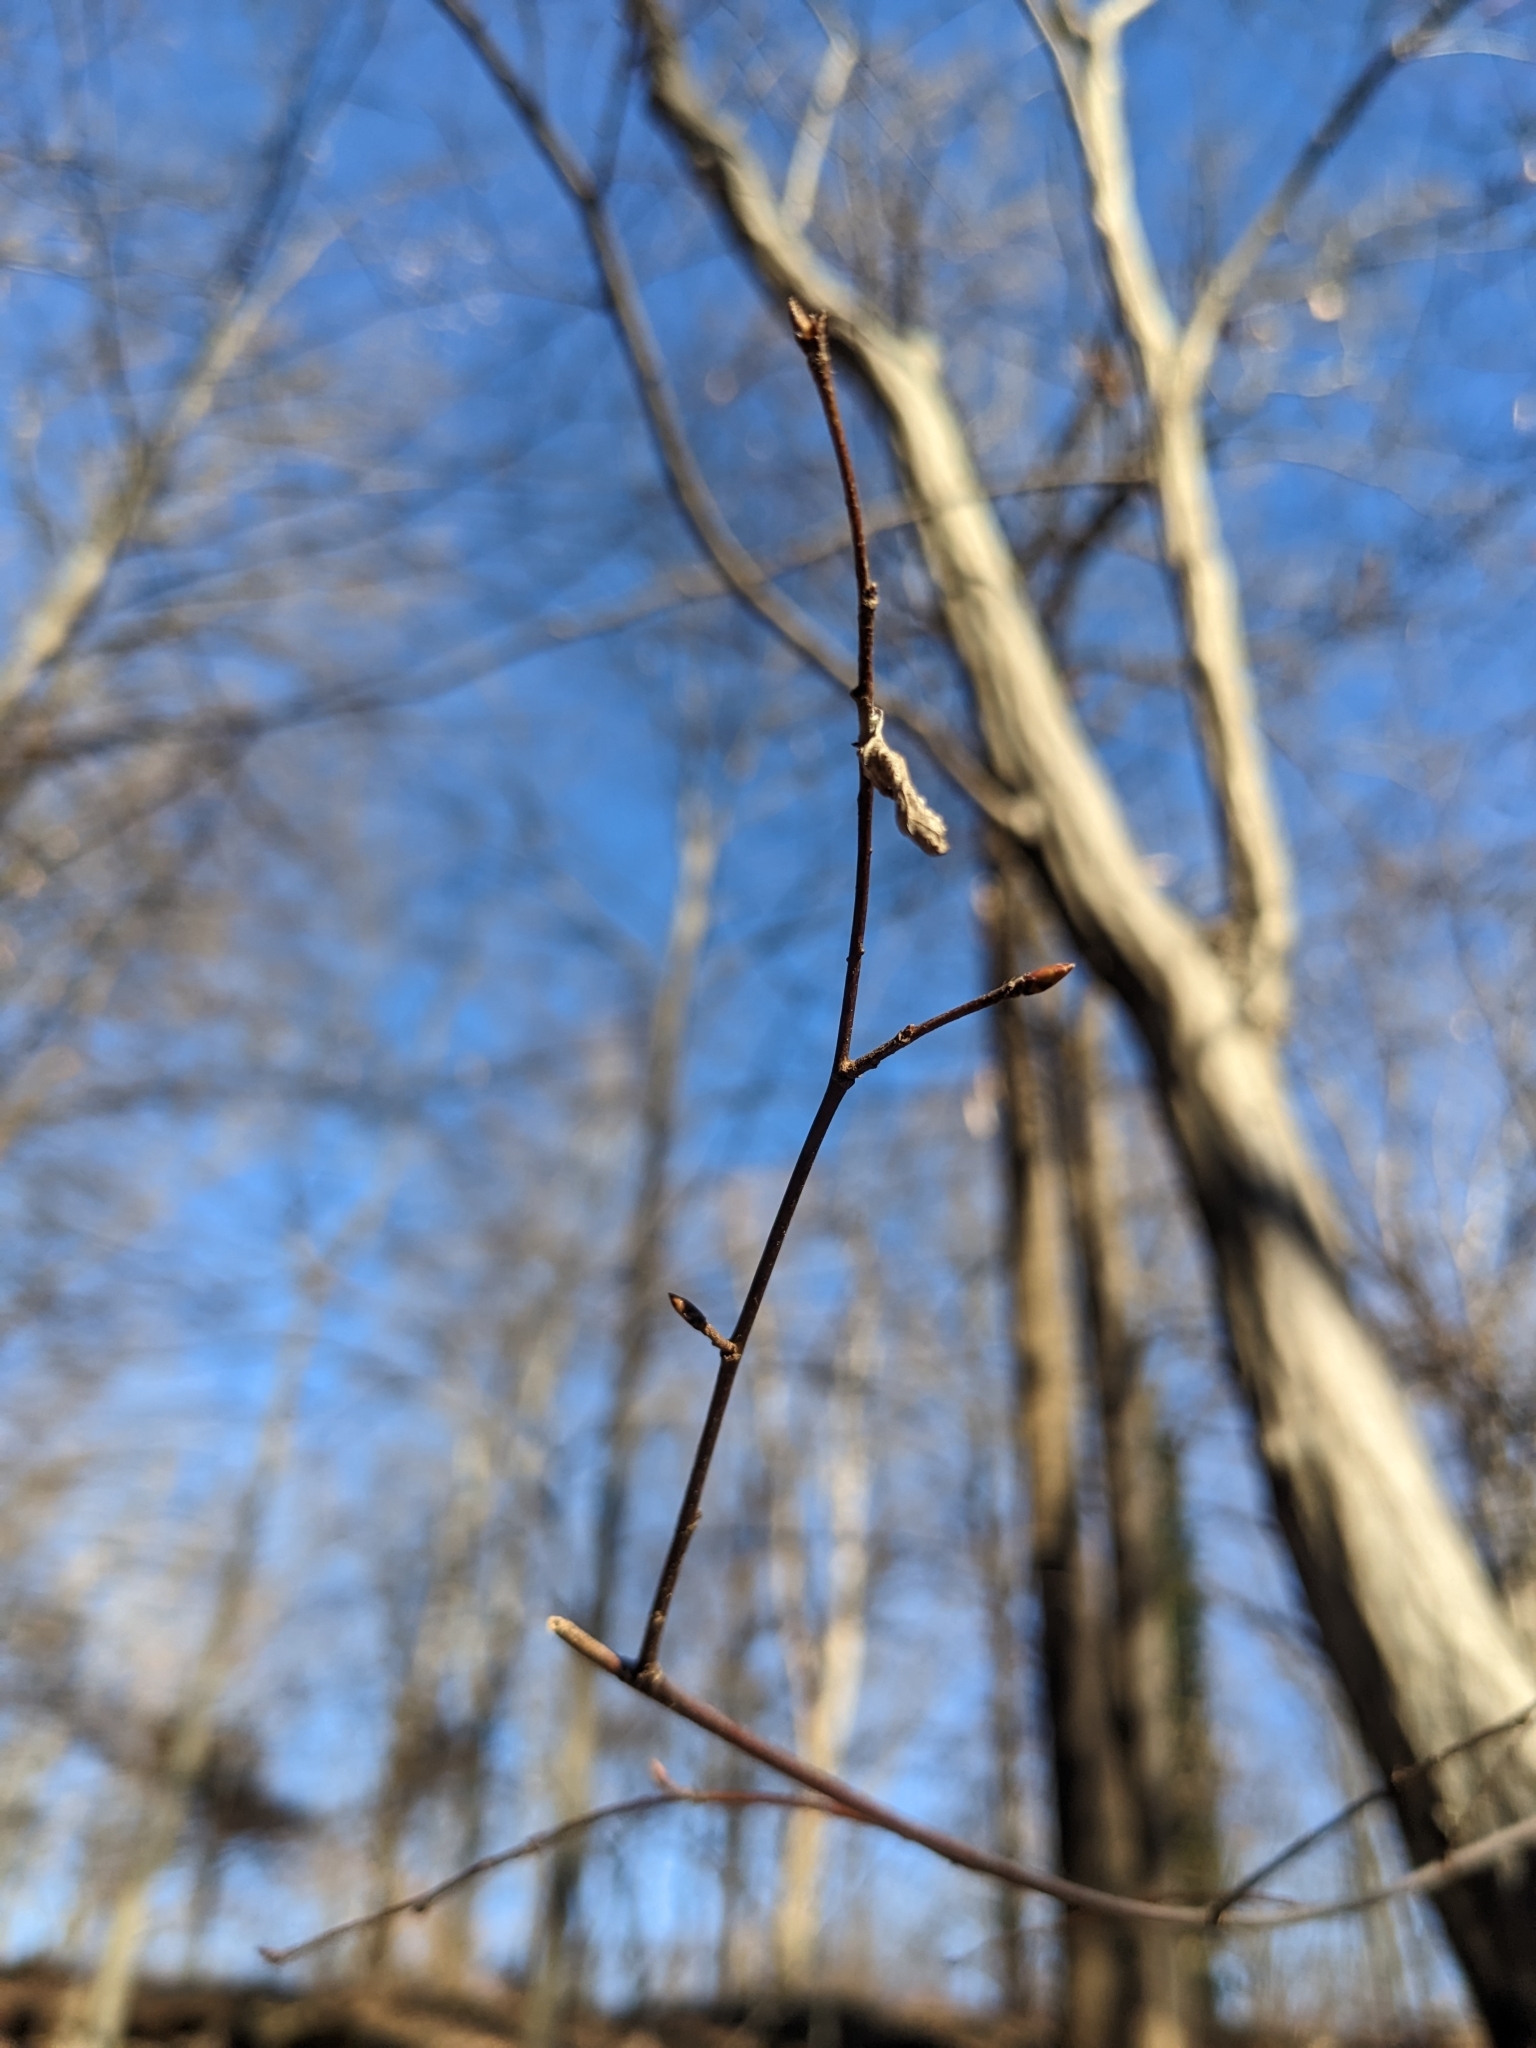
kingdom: Plantae
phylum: Tracheophyta
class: Magnoliopsida
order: Fagales
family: Betulaceae
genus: Carpinus
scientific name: Carpinus caroliniana
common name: American hornbeam
